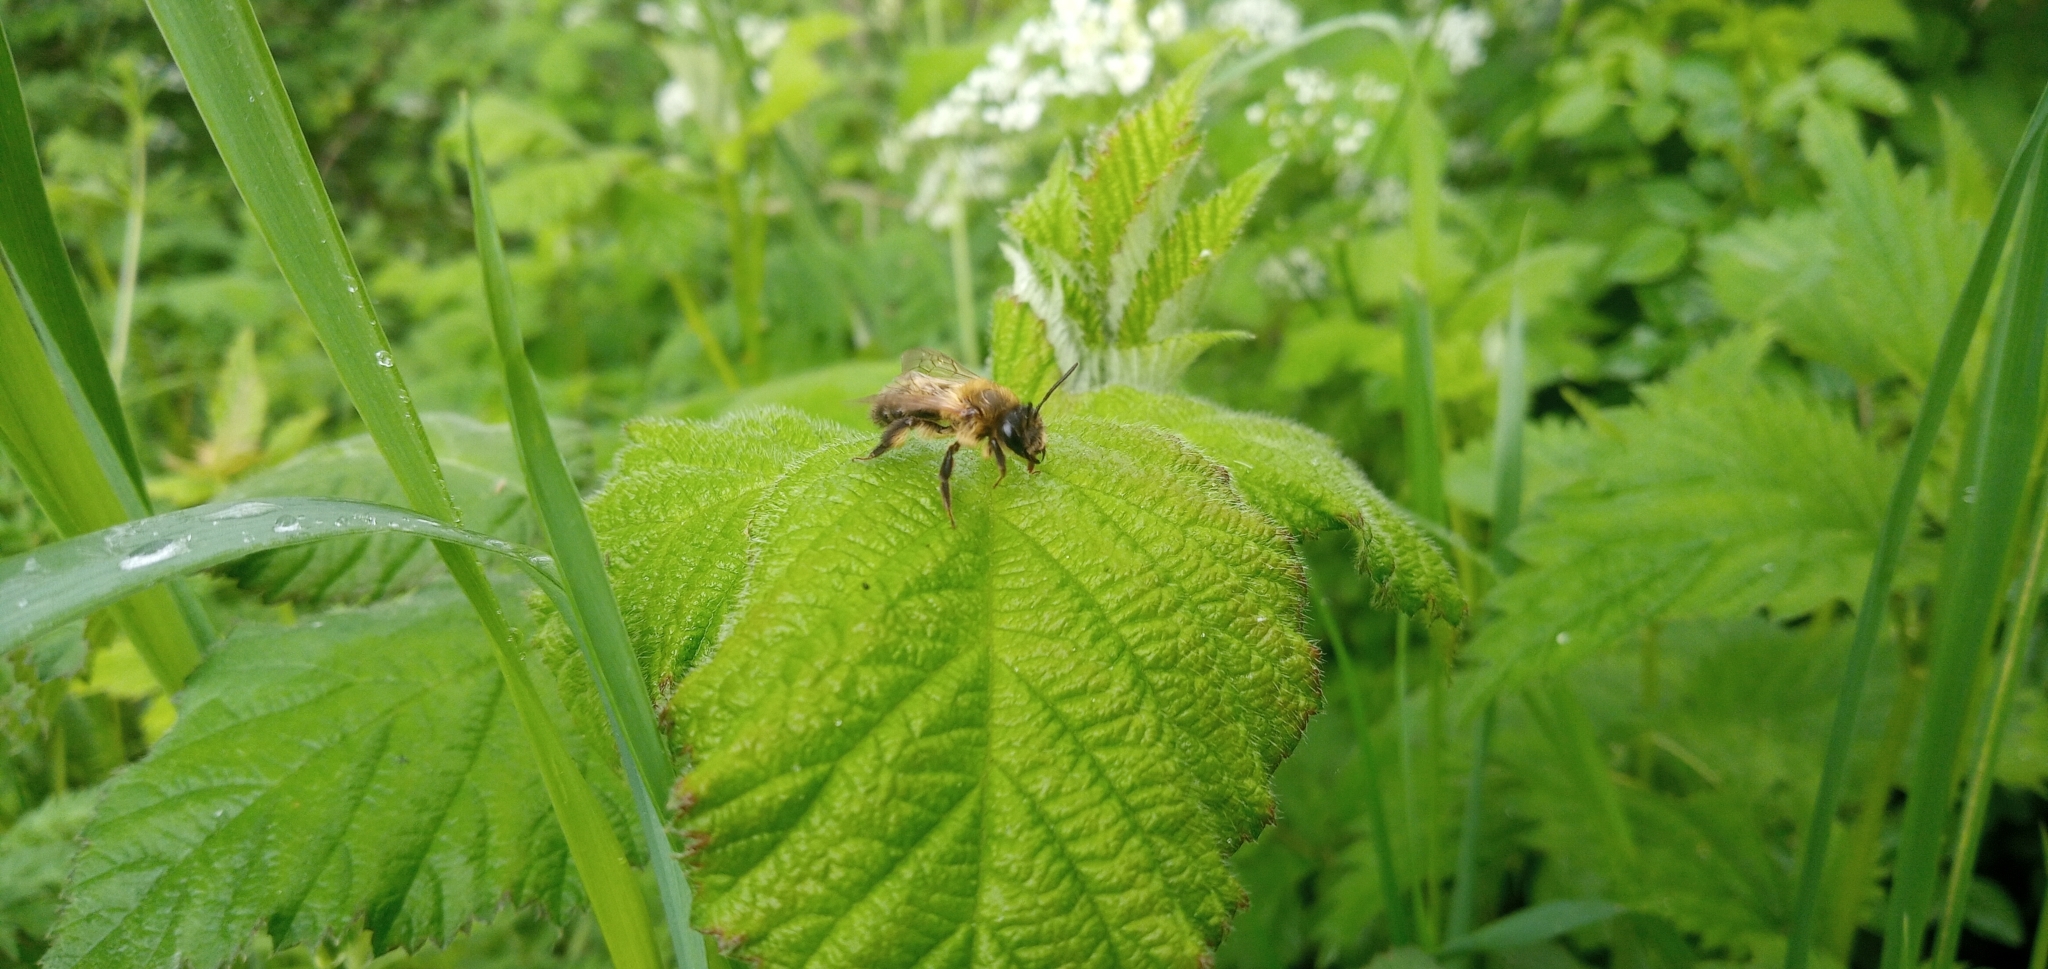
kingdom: Animalia
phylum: Arthropoda
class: Insecta
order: Hymenoptera
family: Andrenidae
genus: Andrena
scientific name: Andrena carantonica
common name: Chocolate mining bee
